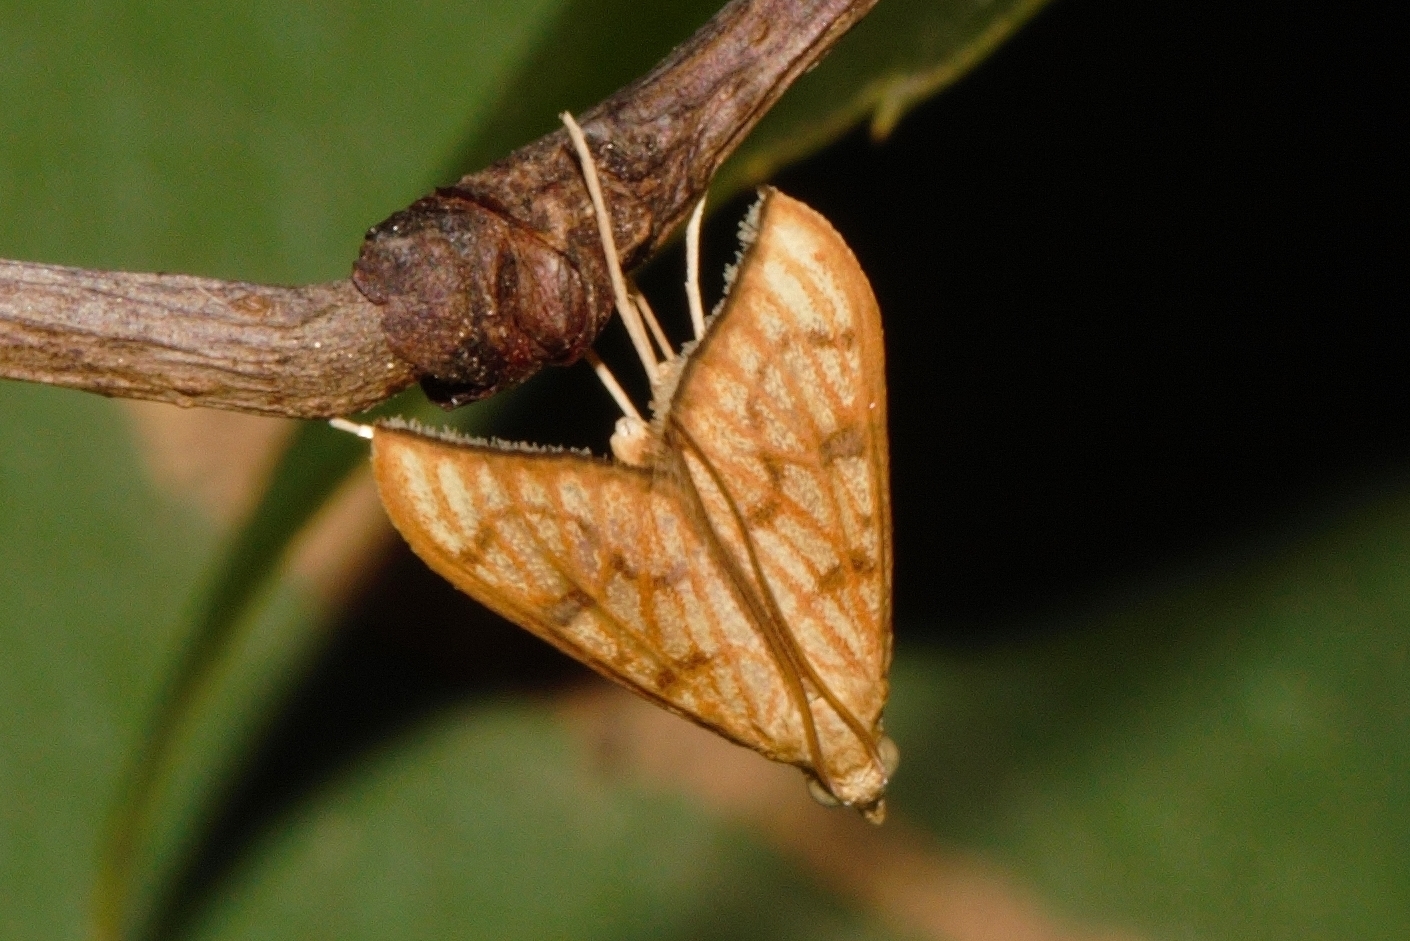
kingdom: Animalia
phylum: Arthropoda
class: Insecta
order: Lepidoptera
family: Crambidae
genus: Antigastra
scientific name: Antigastra catalaunalis
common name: Spanish dot
